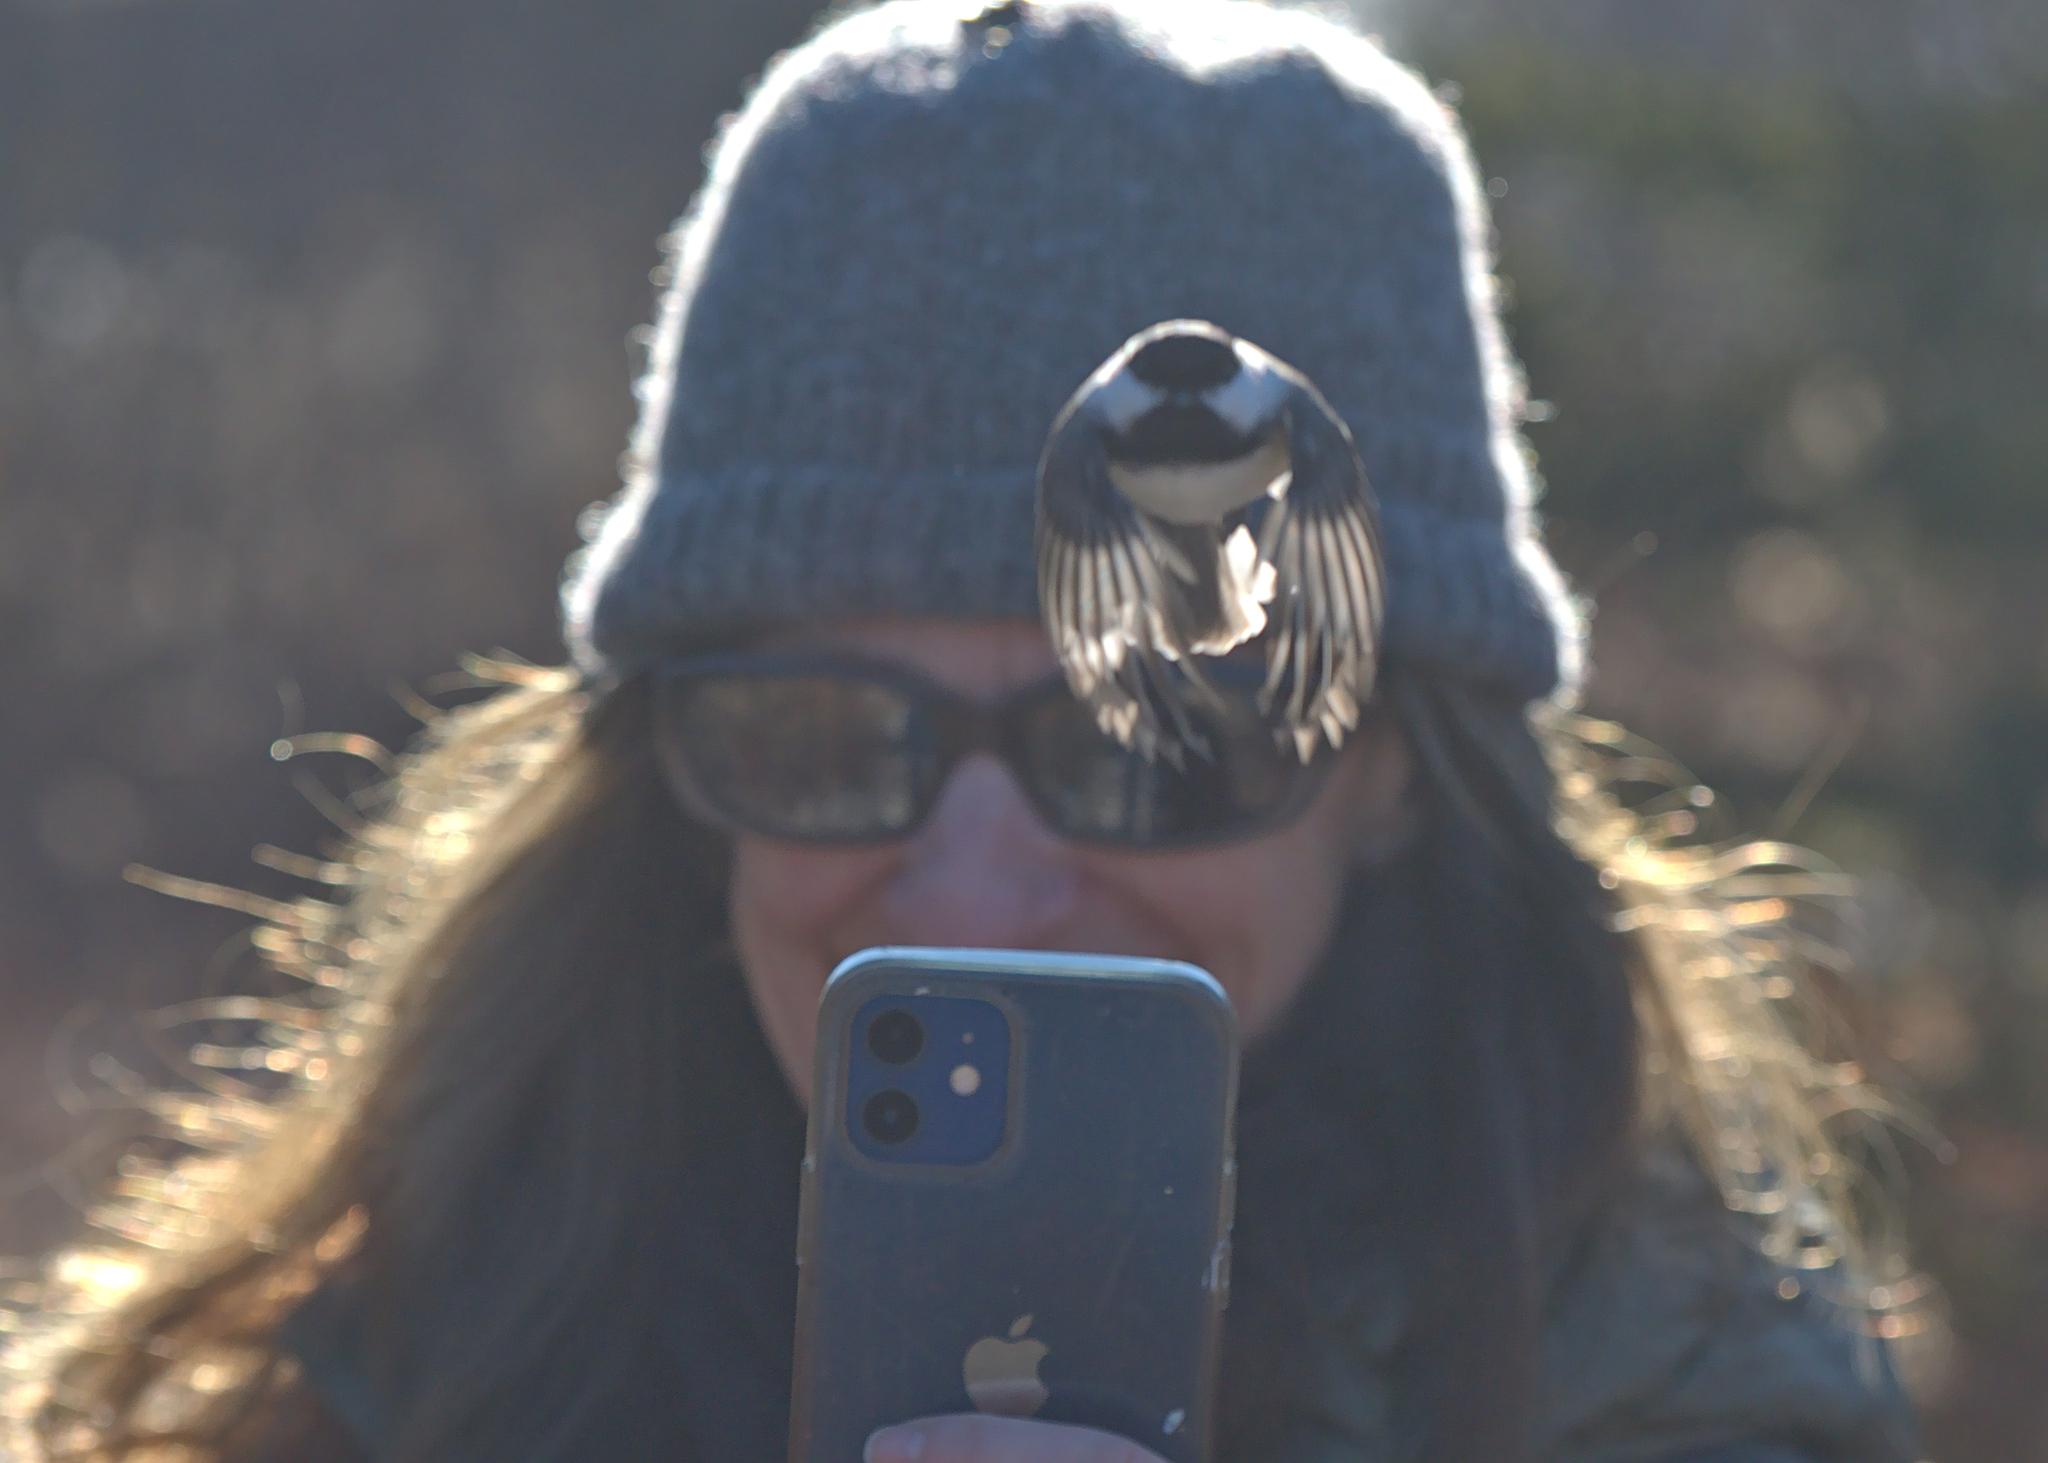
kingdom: Animalia
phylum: Chordata
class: Aves
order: Passeriformes
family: Paridae
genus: Poecile
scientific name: Poecile atricapillus
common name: Black-capped chickadee
